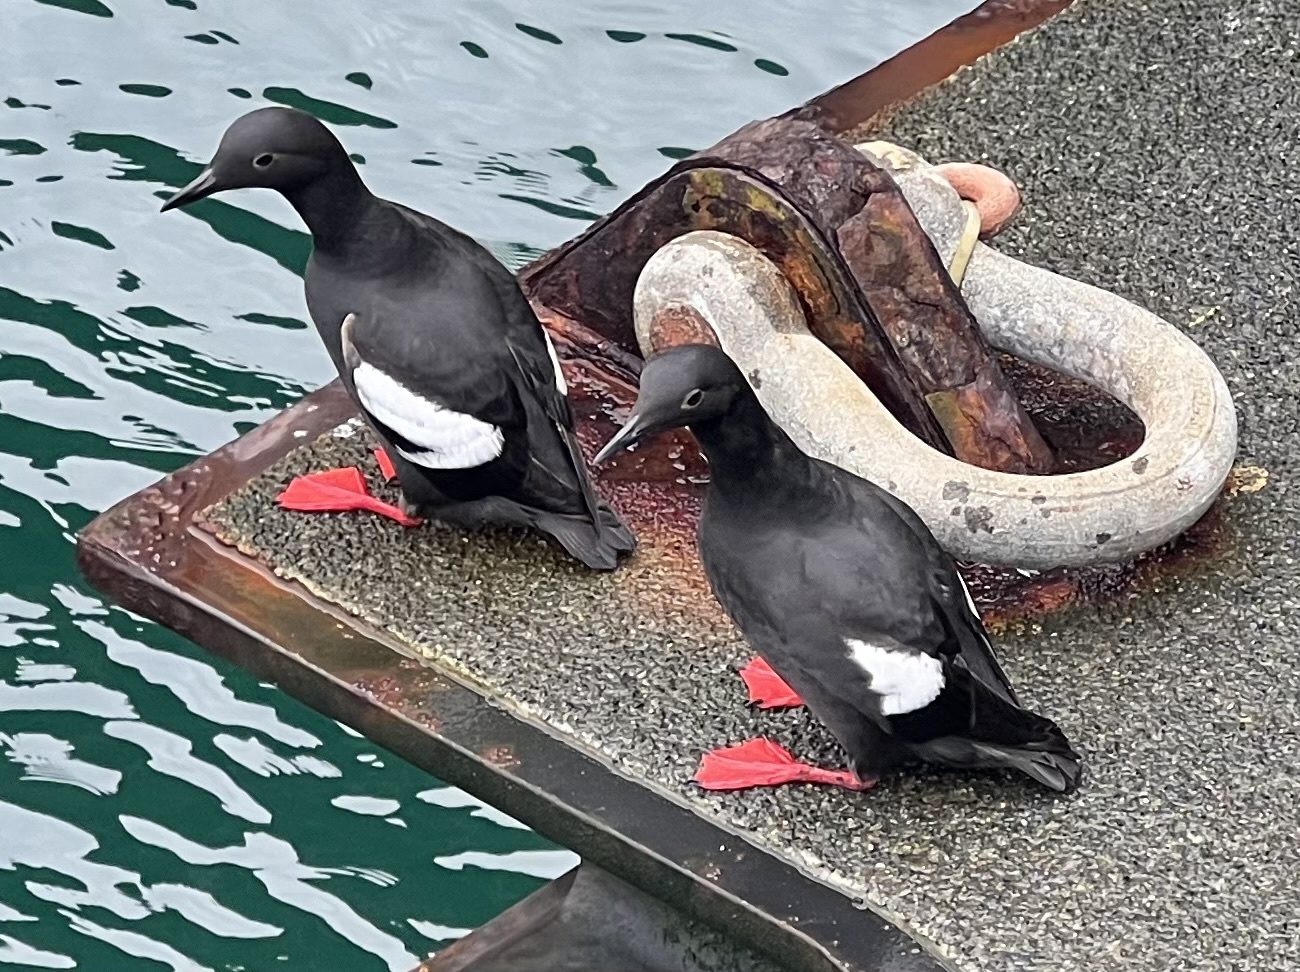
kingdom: Animalia
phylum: Chordata
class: Aves
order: Charadriiformes
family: Alcidae
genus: Cepphus
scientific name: Cepphus columba
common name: Pigeon guillemot
